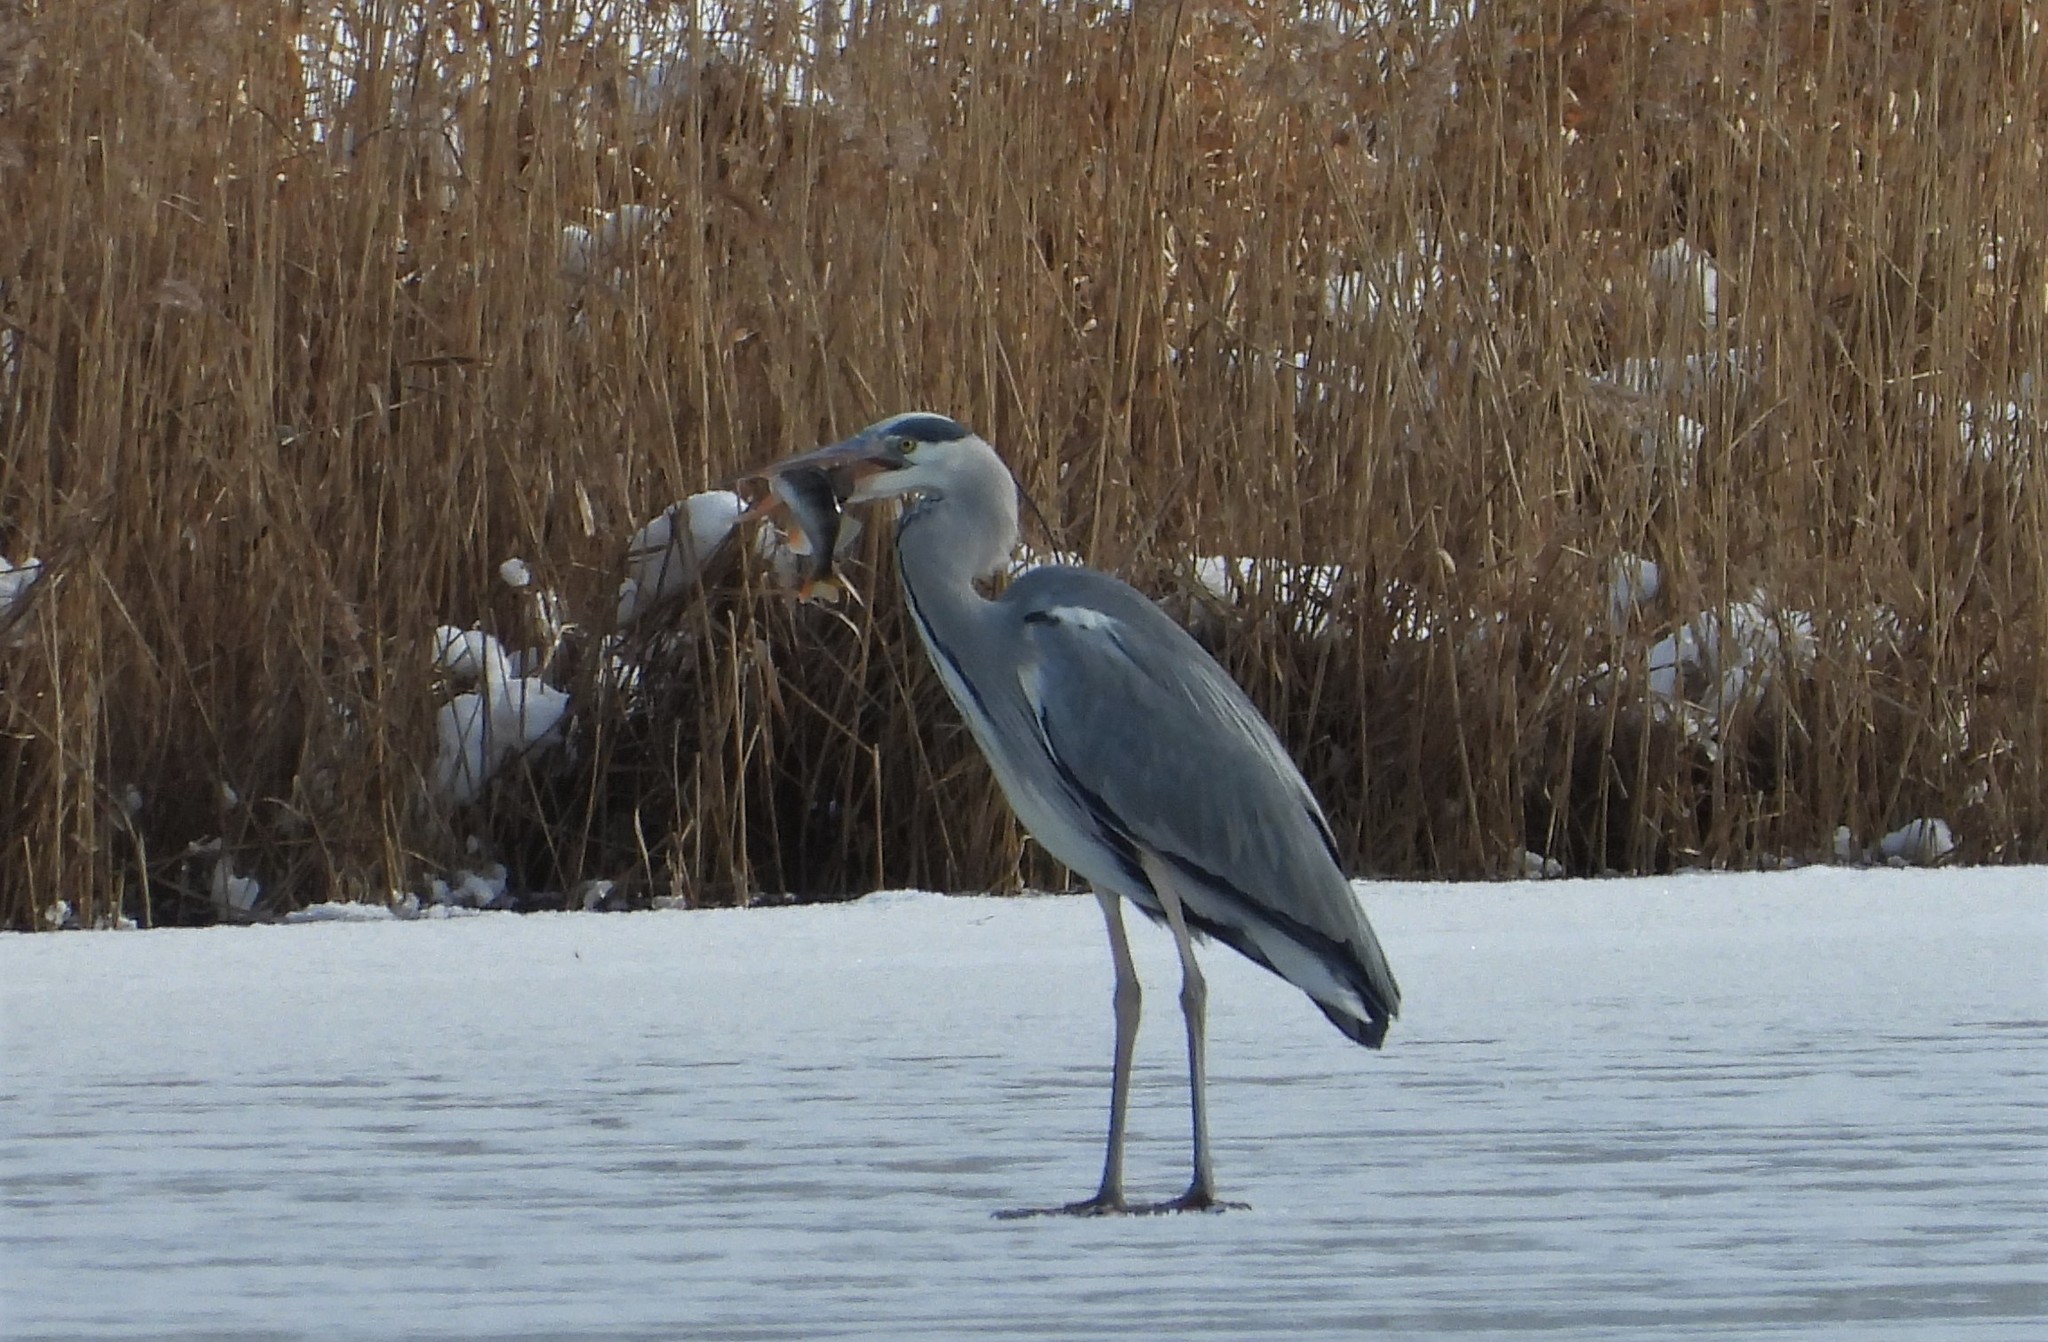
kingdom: Animalia
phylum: Chordata
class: Aves
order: Pelecaniformes
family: Ardeidae
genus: Ardea
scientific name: Ardea cinerea
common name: Grey heron
